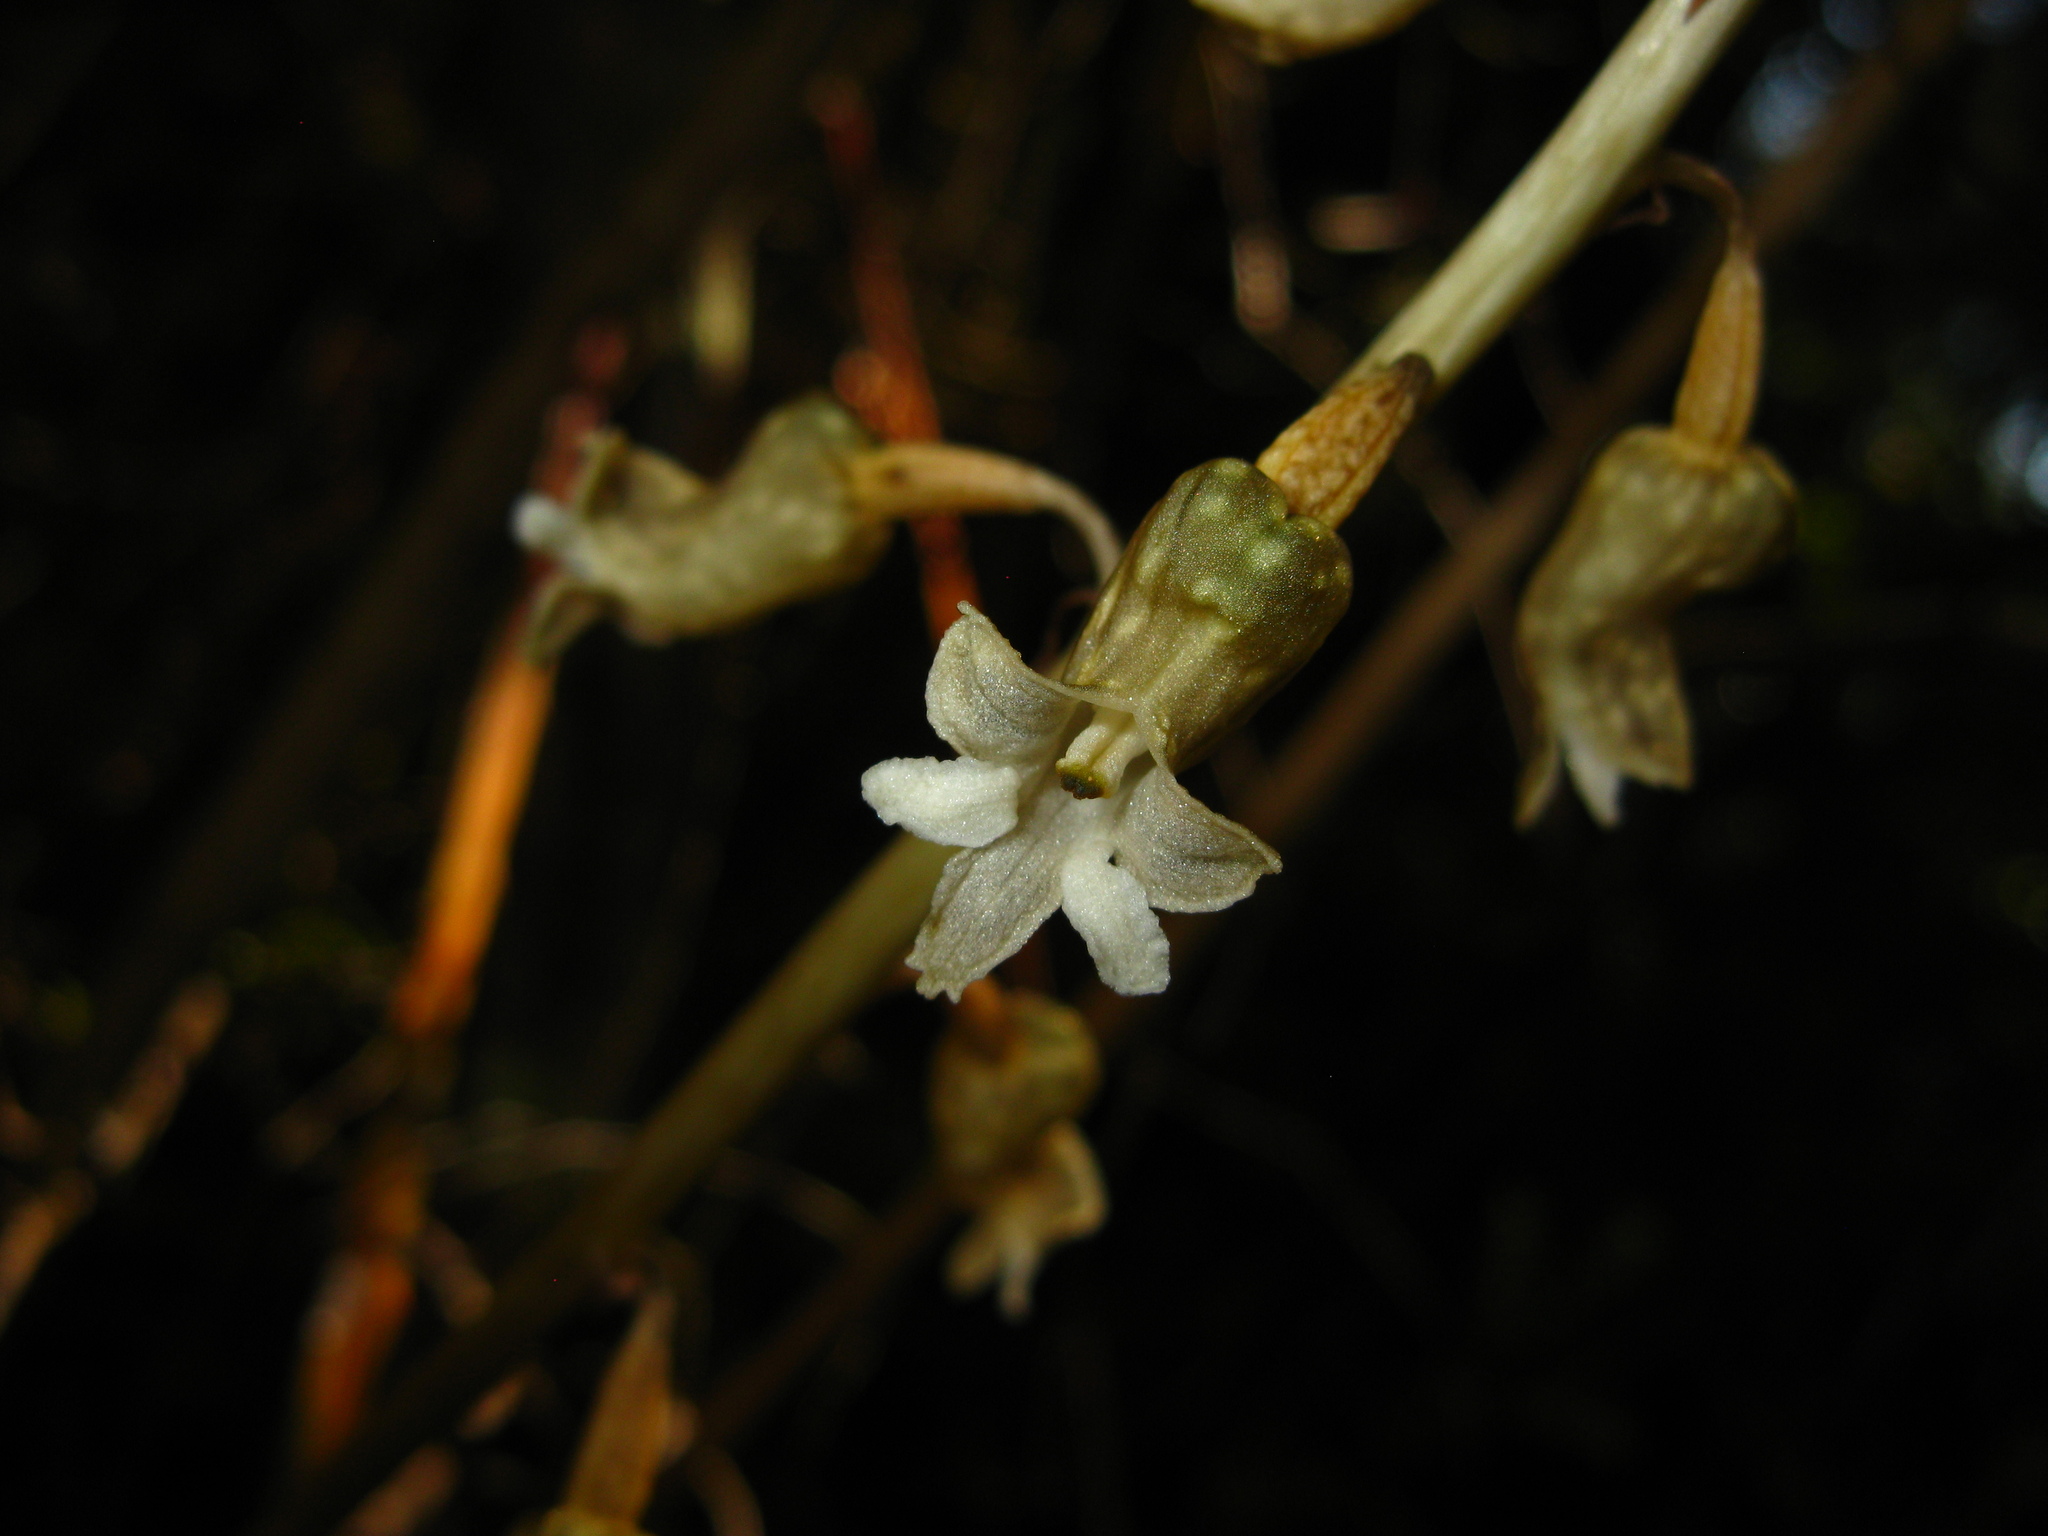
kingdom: Plantae
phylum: Tracheophyta
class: Liliopsida
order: Asparagales
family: Orchidaceae
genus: Gastrodia
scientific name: Gastrodia cunninghamii
